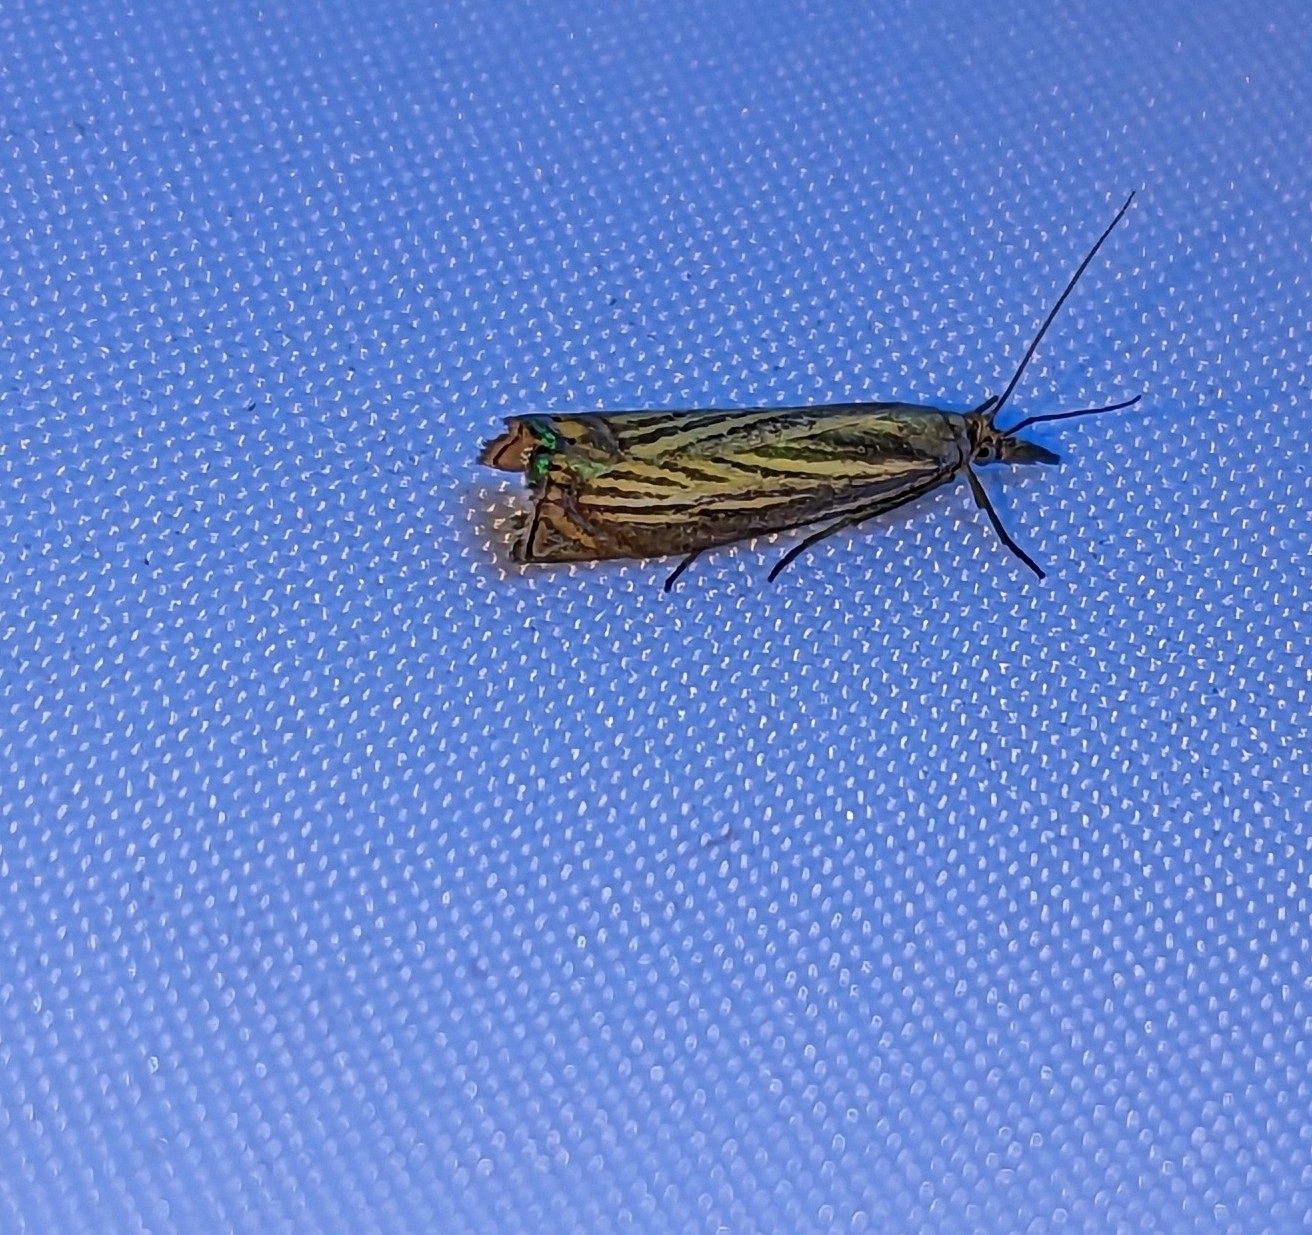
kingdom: Animalia
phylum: Arthropoda
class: Insecta
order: Lepidoptera
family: Crambidae
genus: Chrysoteuchia
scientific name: Chrysoteuchia culmella
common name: Garden grass-veneer
